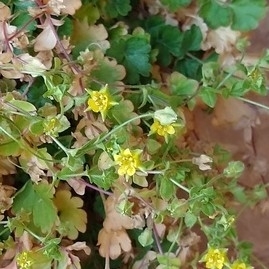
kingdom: Plantae
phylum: Tracheophyta
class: Magnoliopsida
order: Rosales
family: Rosaceae
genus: Potentilla
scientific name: Potentilla osterhoutii
